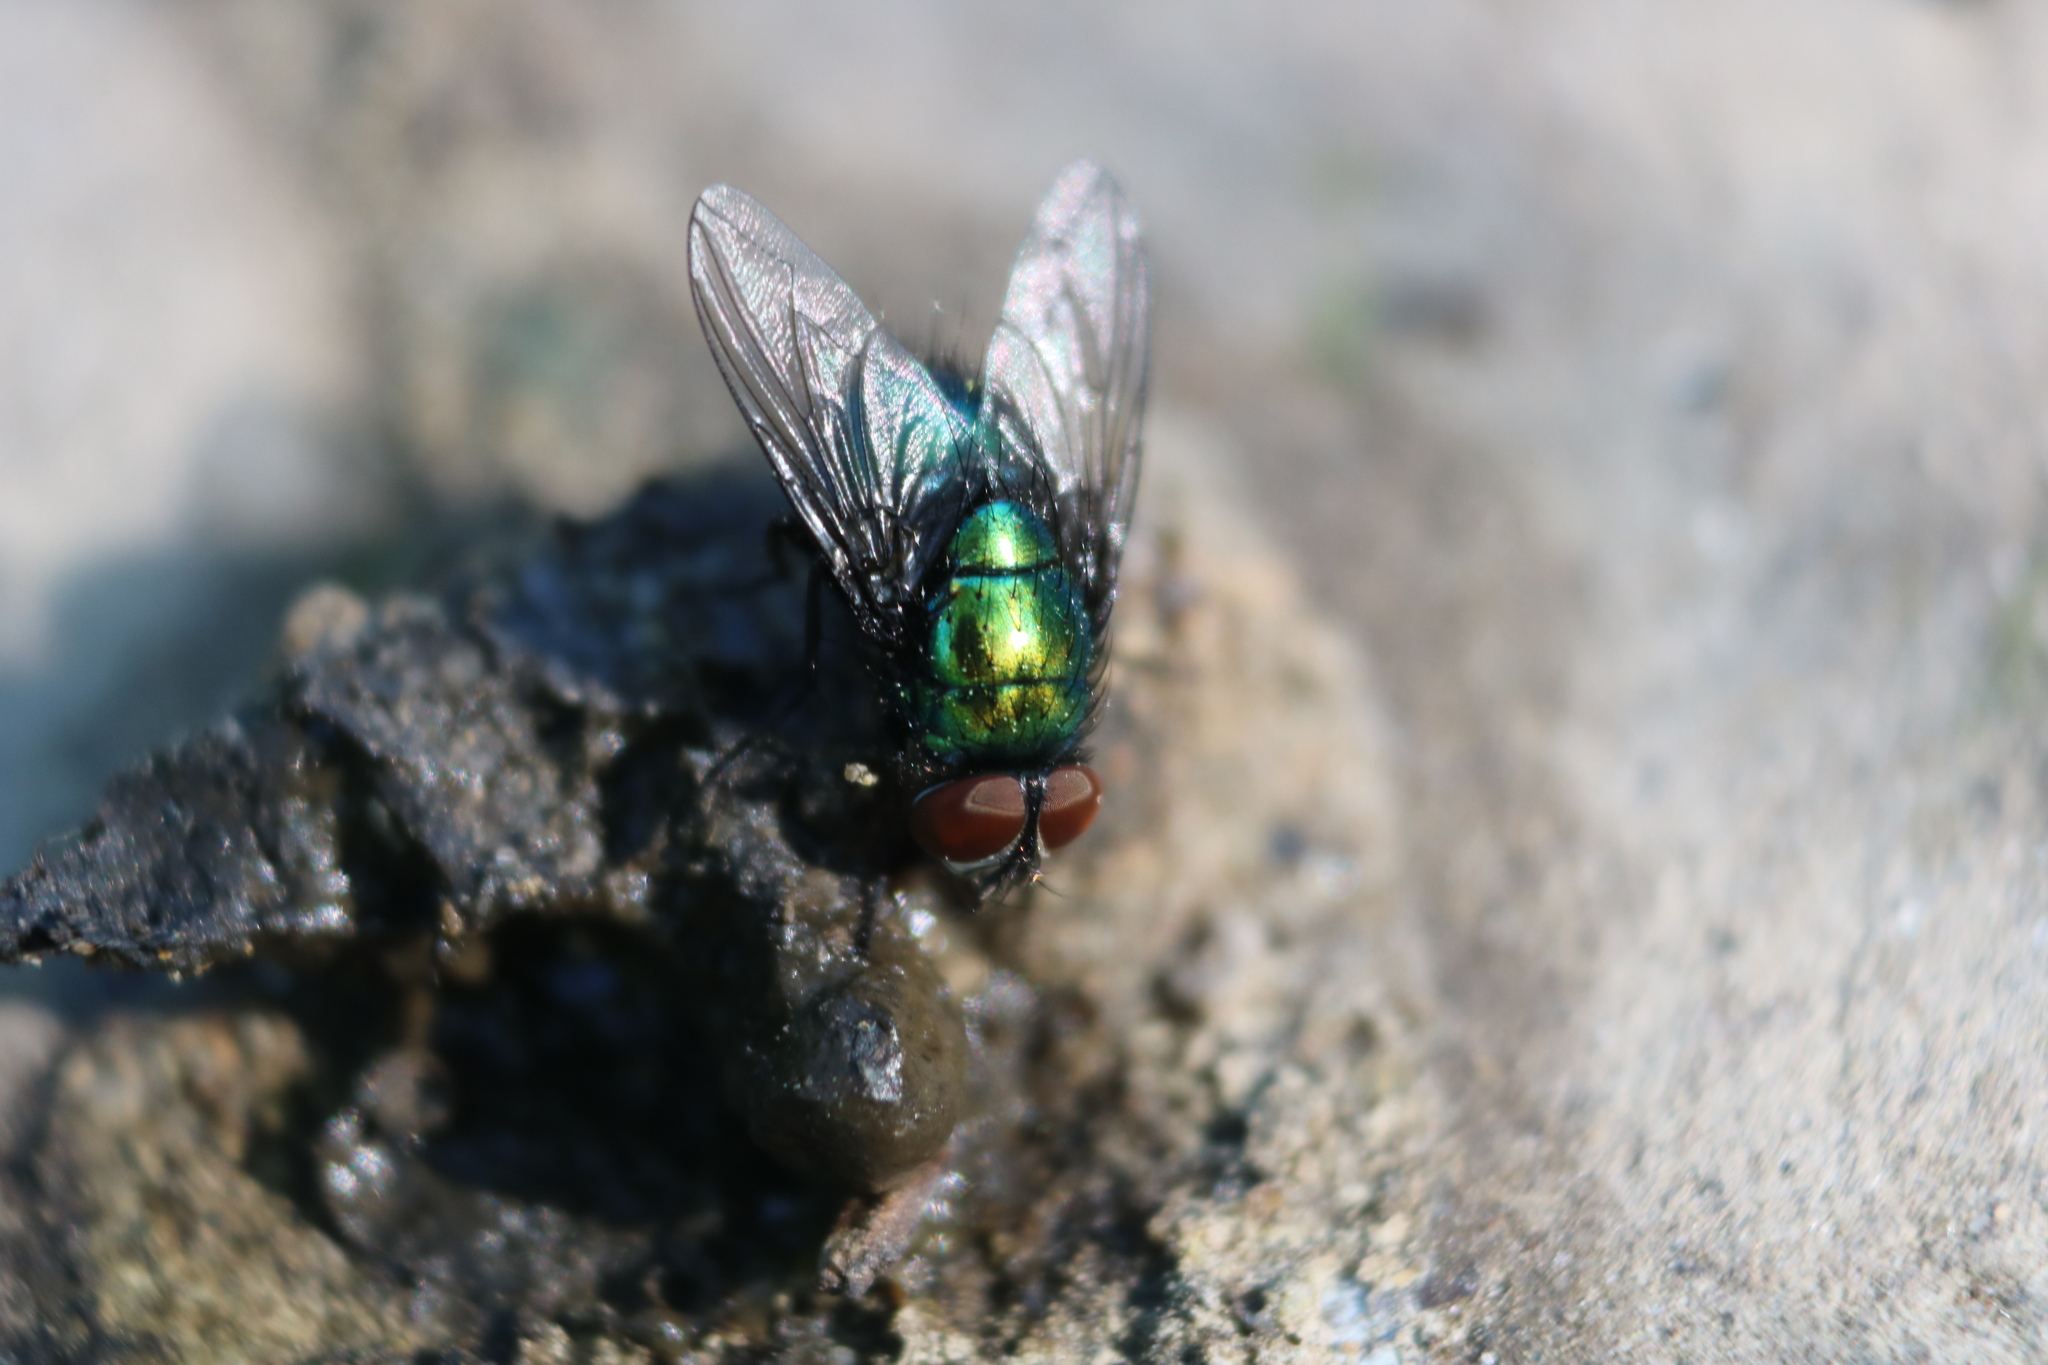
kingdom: Animalia
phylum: Arthropoda
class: Insecta
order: Diptera
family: Calliphoridae
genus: Lucilia
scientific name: Lucilia silvarum
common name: Marsh greenbottle
